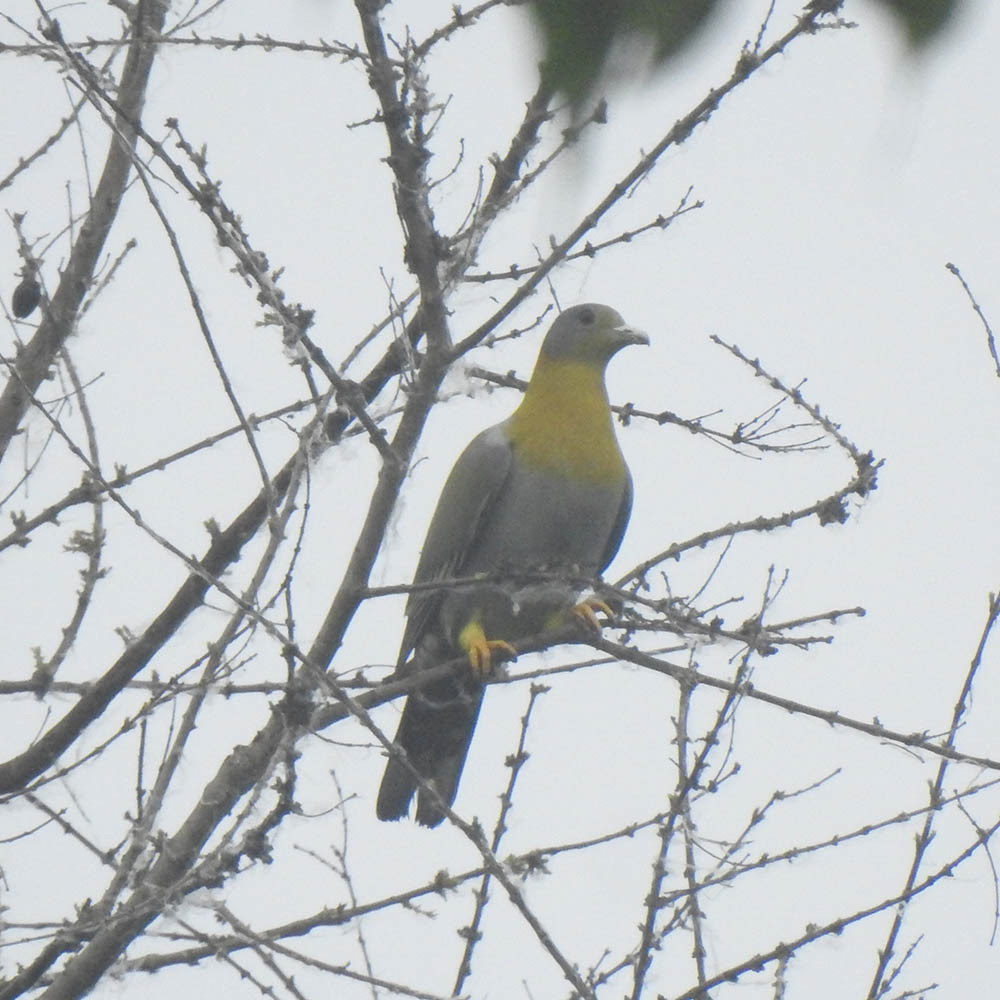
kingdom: Animalia
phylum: Chordata
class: Aves
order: Columbiformes
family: Columbidae
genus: Treron
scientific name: Treron phoenicopterus
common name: Yellow-footed green pigeon
